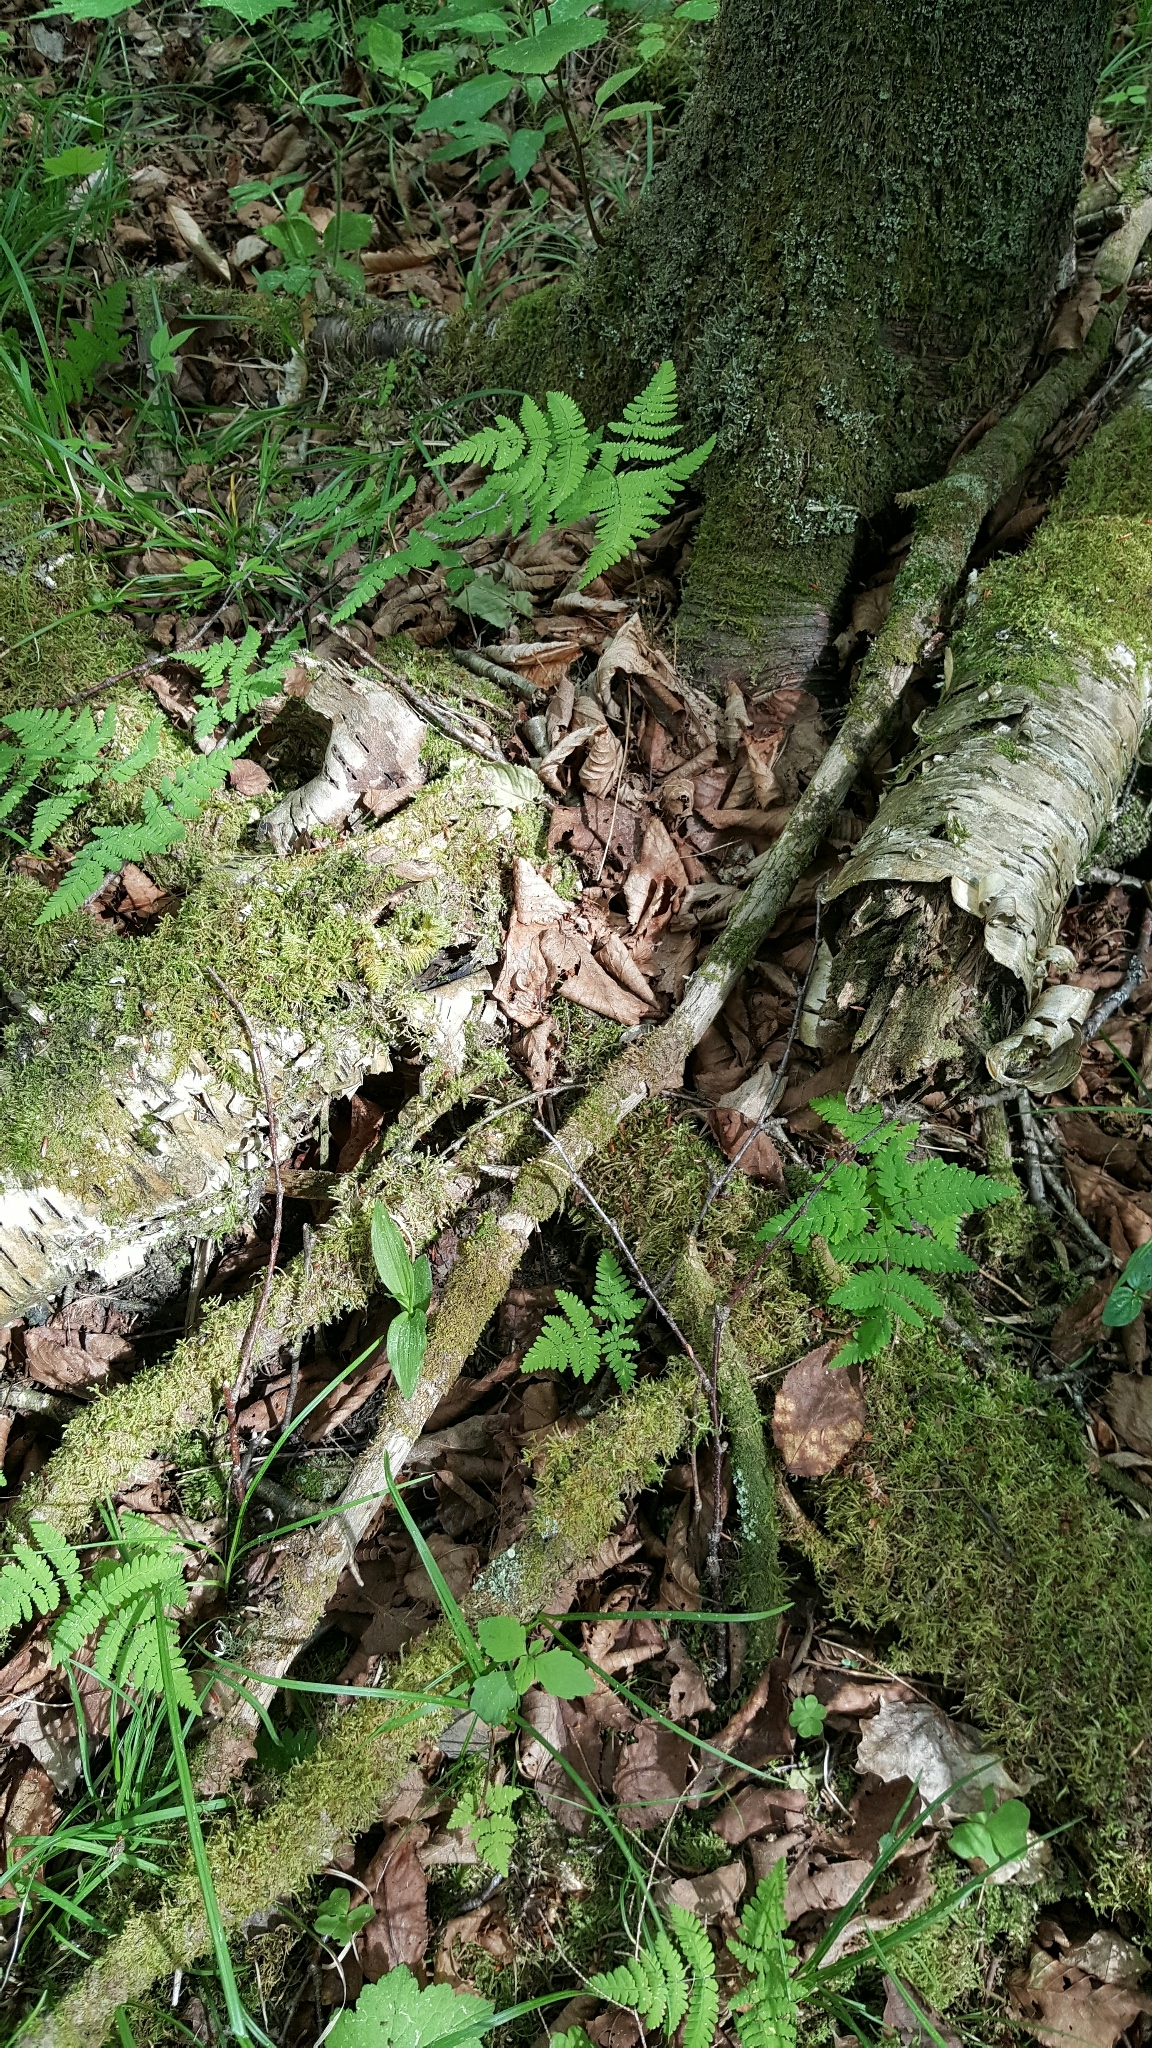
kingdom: Plantae
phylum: Tracheophyta
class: Polypodiopsida
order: Polypodiales
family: Cystopteridaceae
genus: Gymnocarpium
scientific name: Gymnocarpium dryopteris
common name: Oak fern
